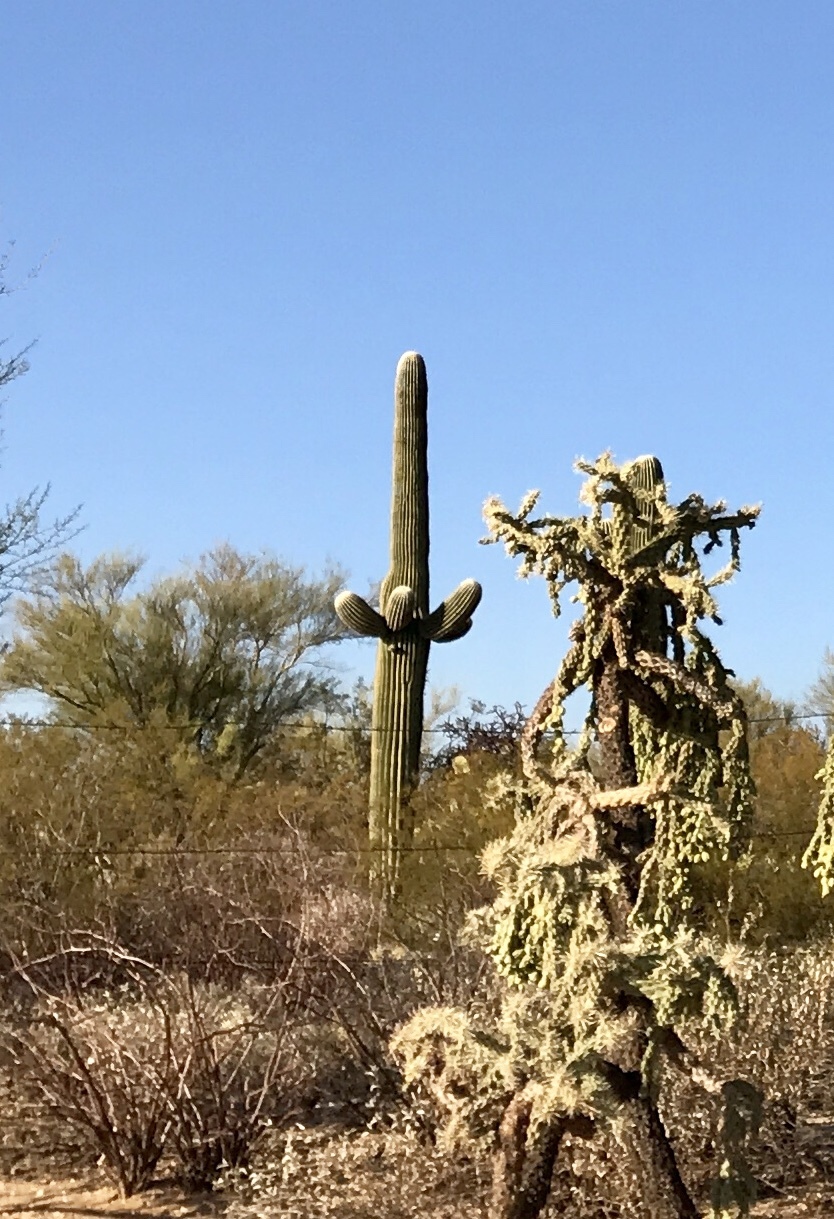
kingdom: Plantae
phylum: Tracheophyta
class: Magnoliopsida
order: Caryophyllales
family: Cactaceae
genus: Carnegiea
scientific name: Carnegiea gigantea
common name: Saguaro
